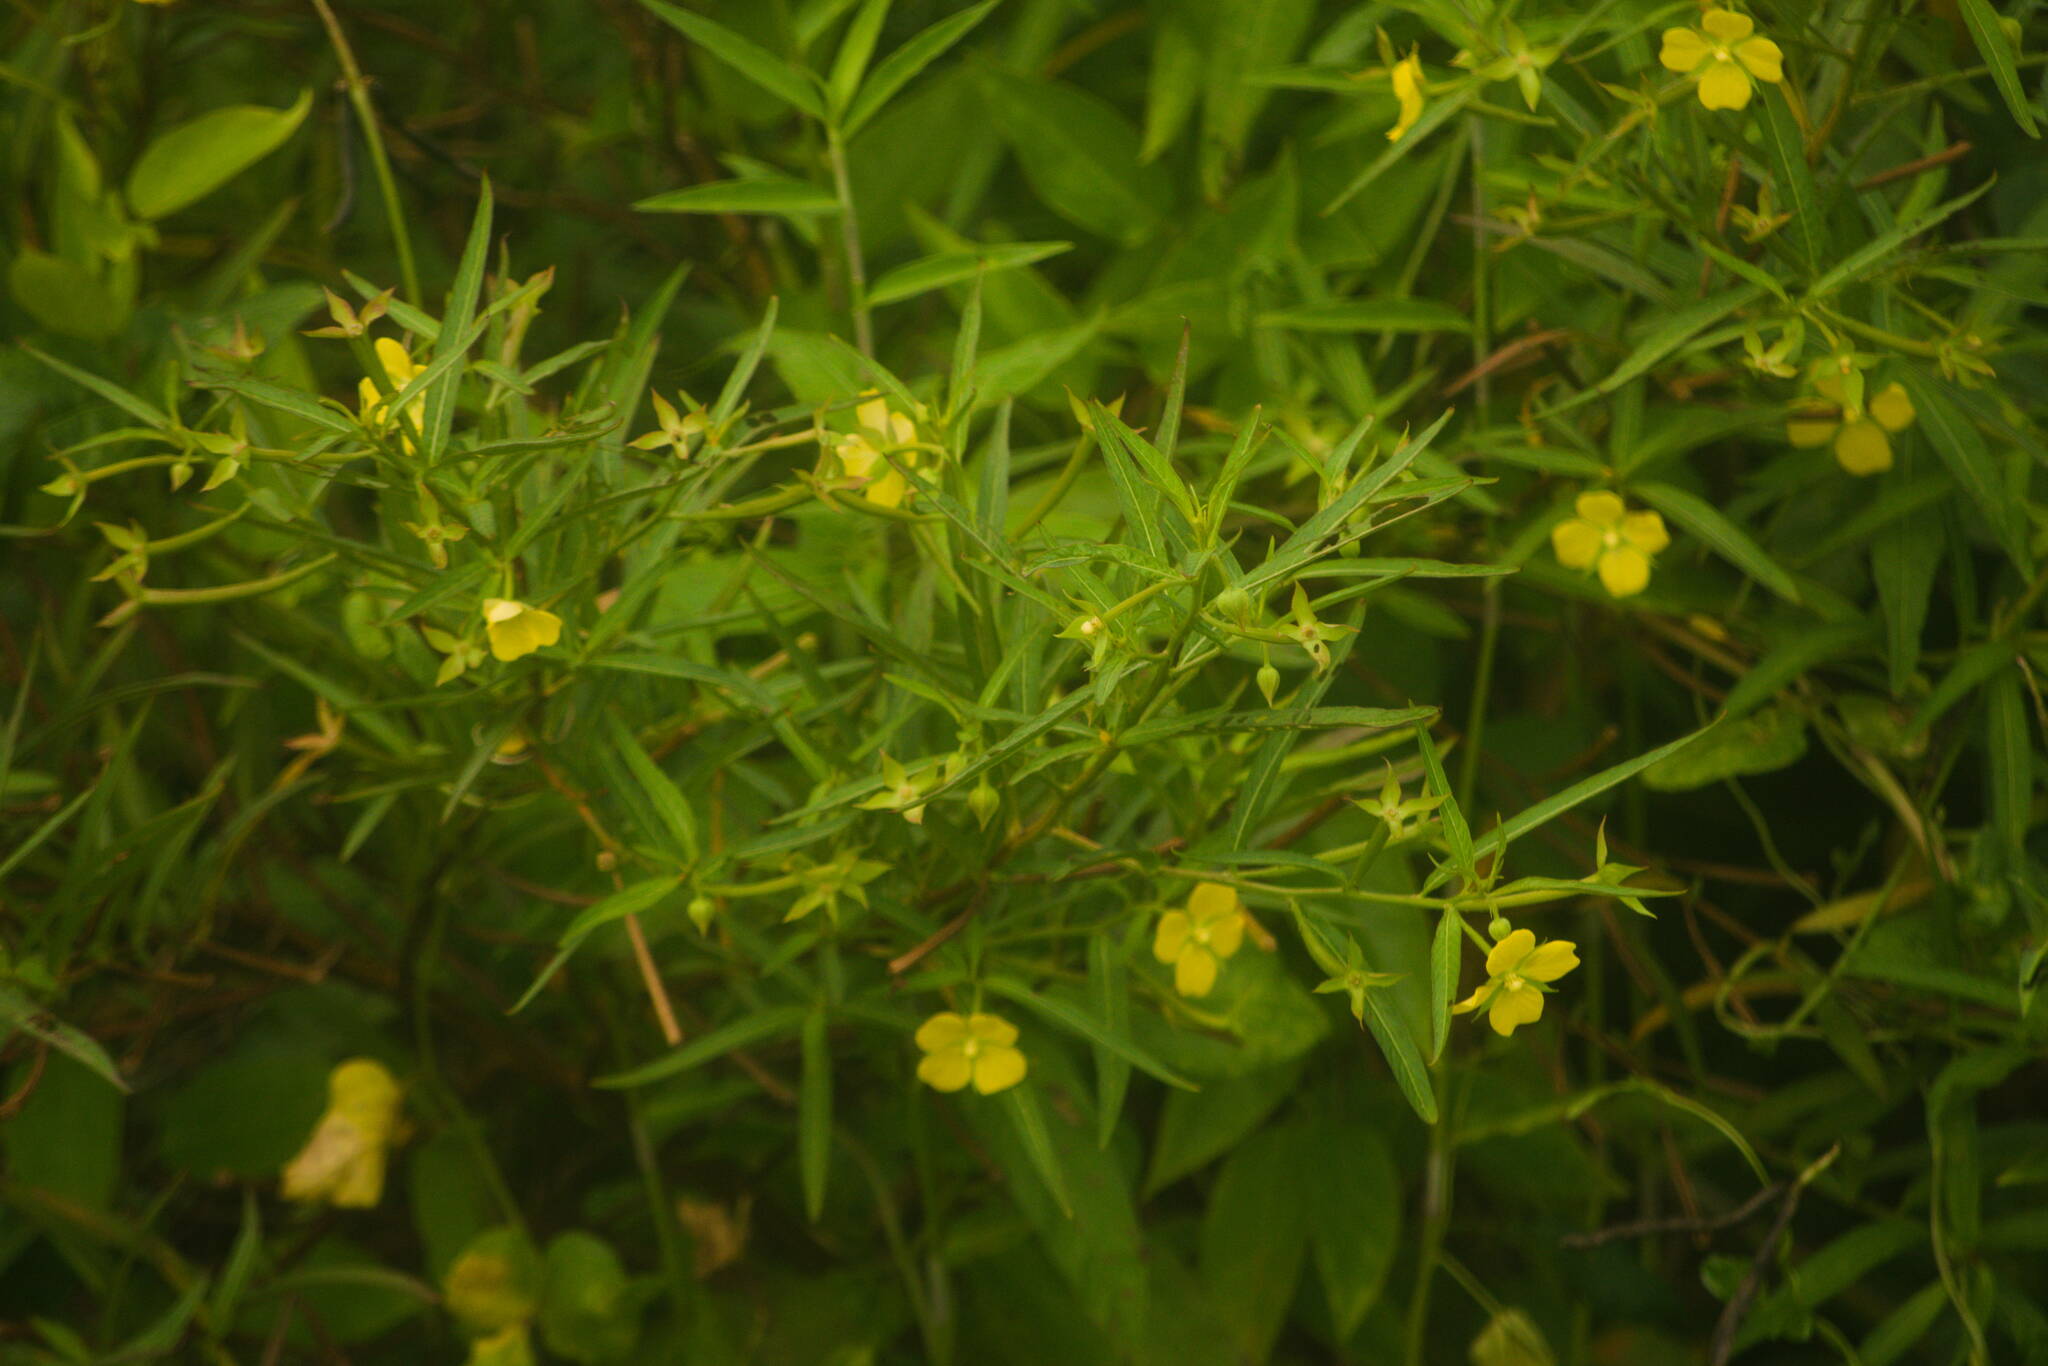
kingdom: Plantae
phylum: Tracheophyta
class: Magnoliopsida
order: Myrtales
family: Onagraceae
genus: Ludwigia
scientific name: Ludwigia octovalvis
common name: Water-primrose
